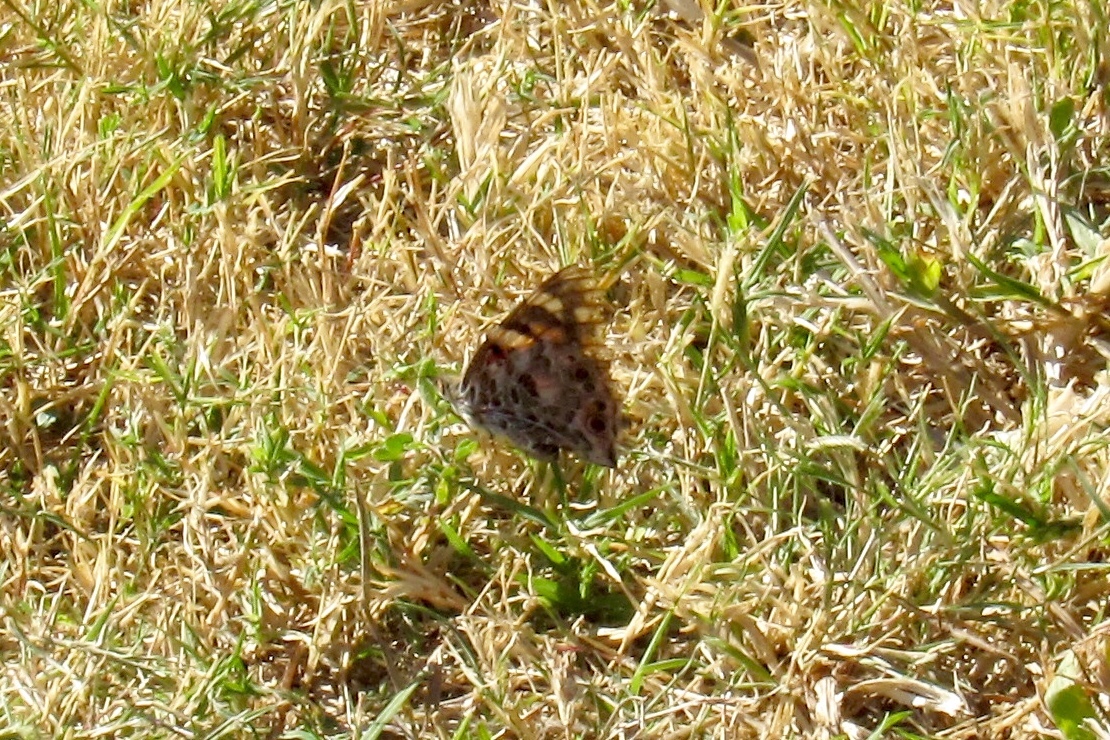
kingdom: Animalia
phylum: Arthropoda
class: Insecta
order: Lepidoptera
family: Nymphalidae
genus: Vanessa
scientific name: Vanessa cardui
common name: Painted lady
